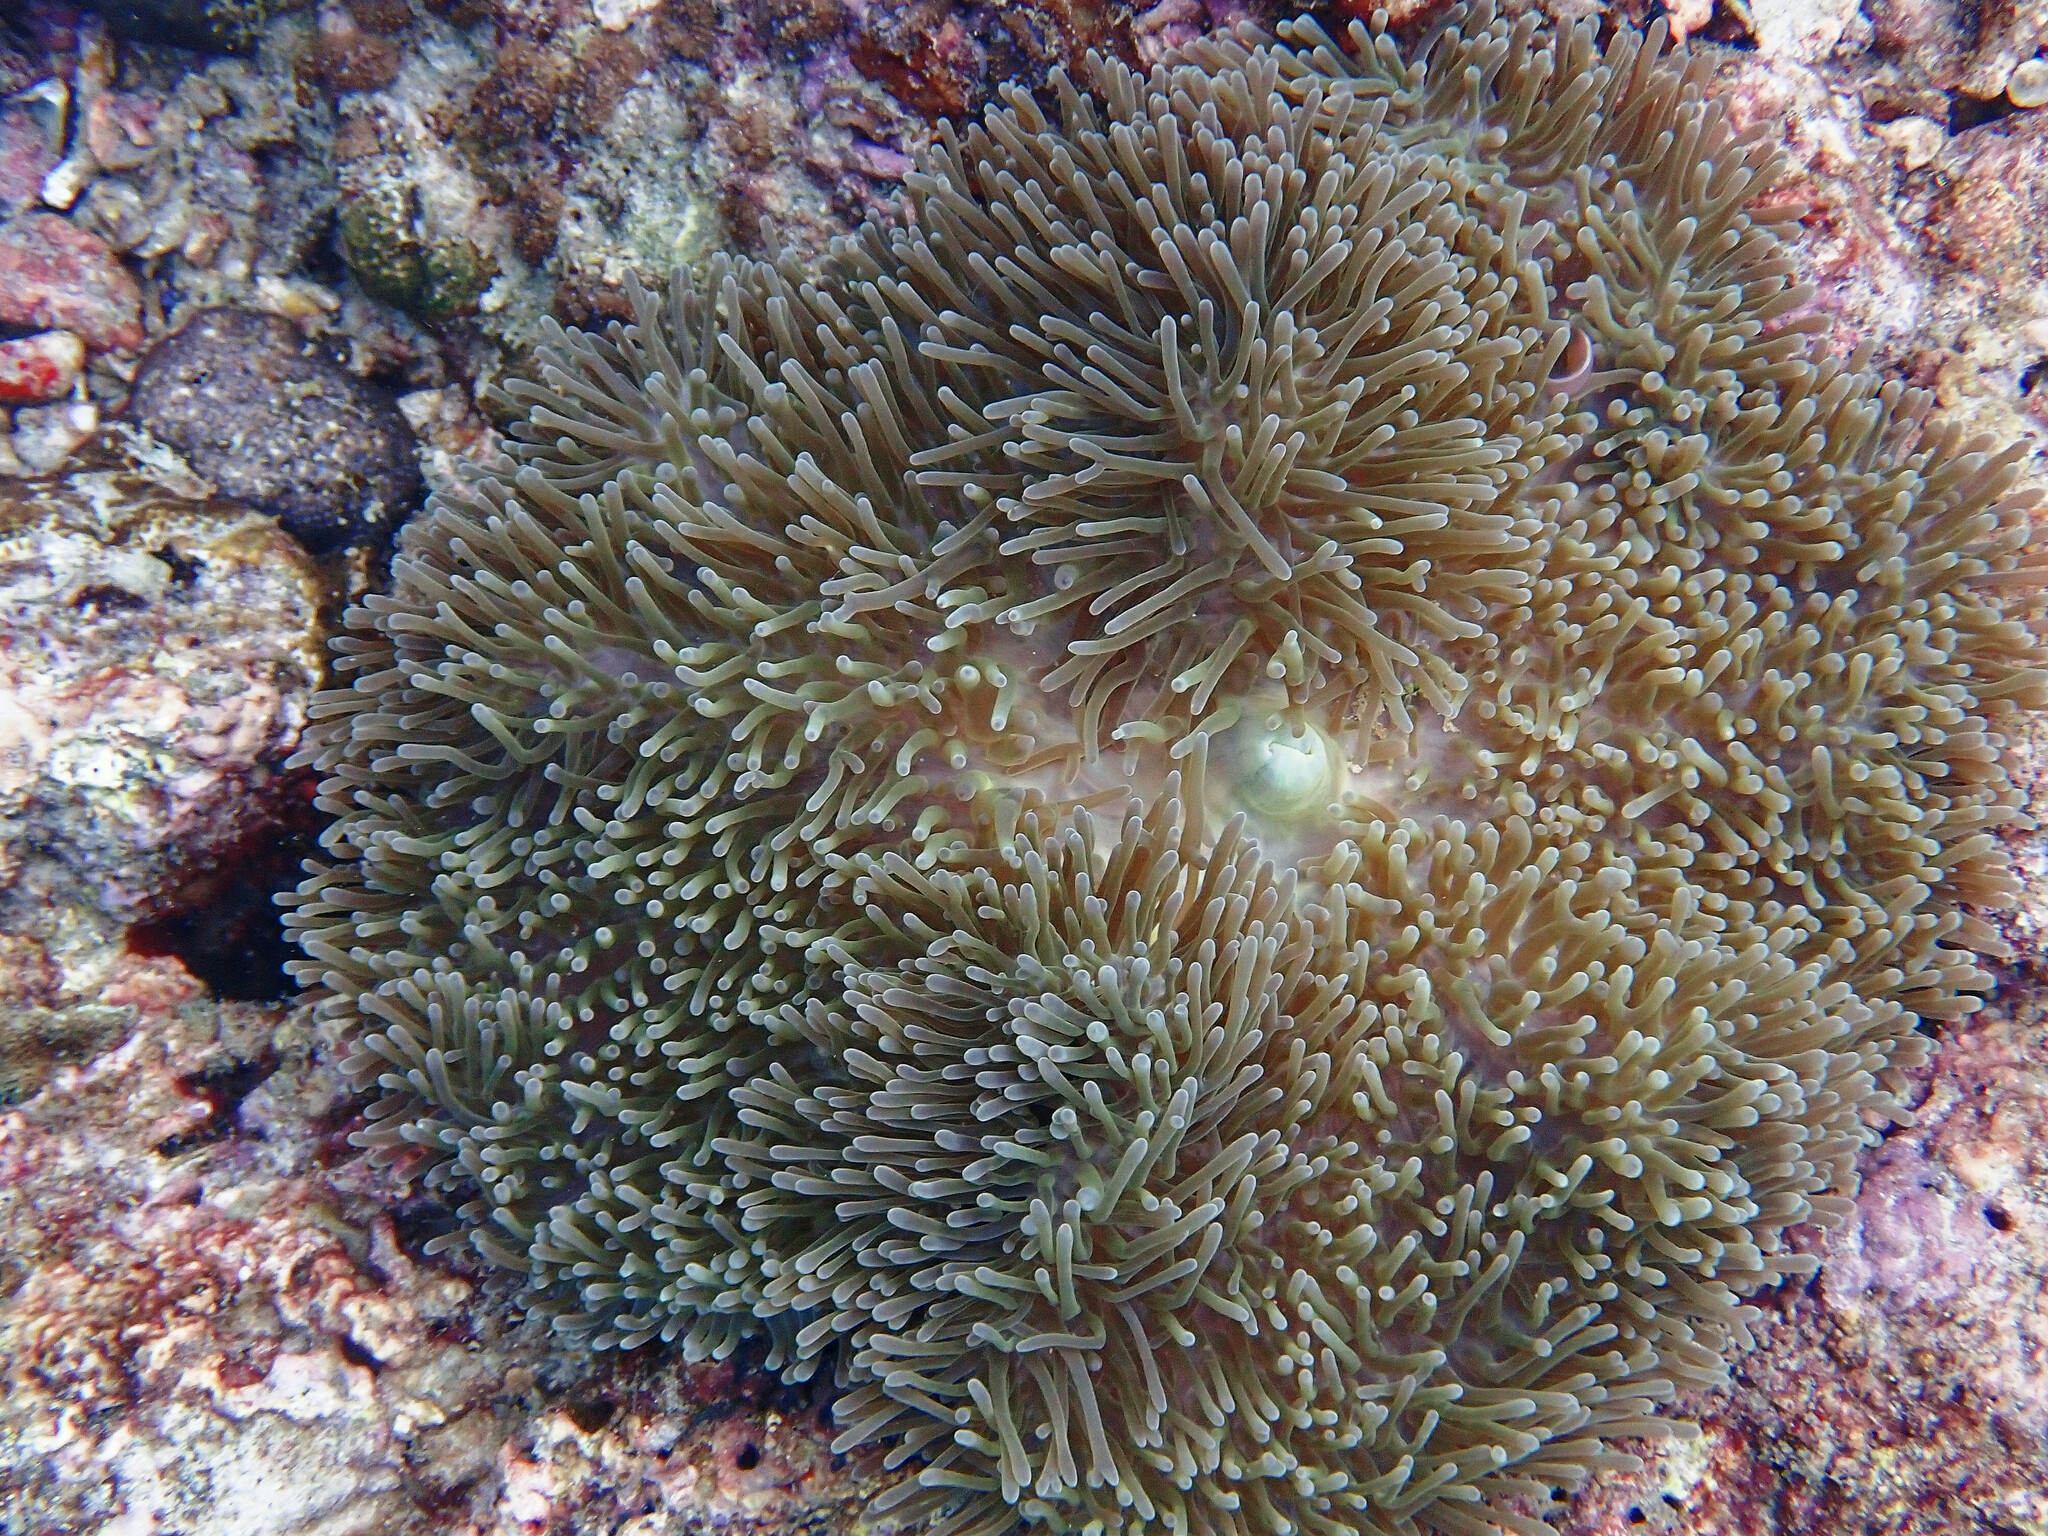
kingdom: Animalia
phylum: Cnidaria
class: Anthozoa
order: Actiniaria
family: Stichodactylidae
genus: Radianthus
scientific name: Radianthus magnifica
